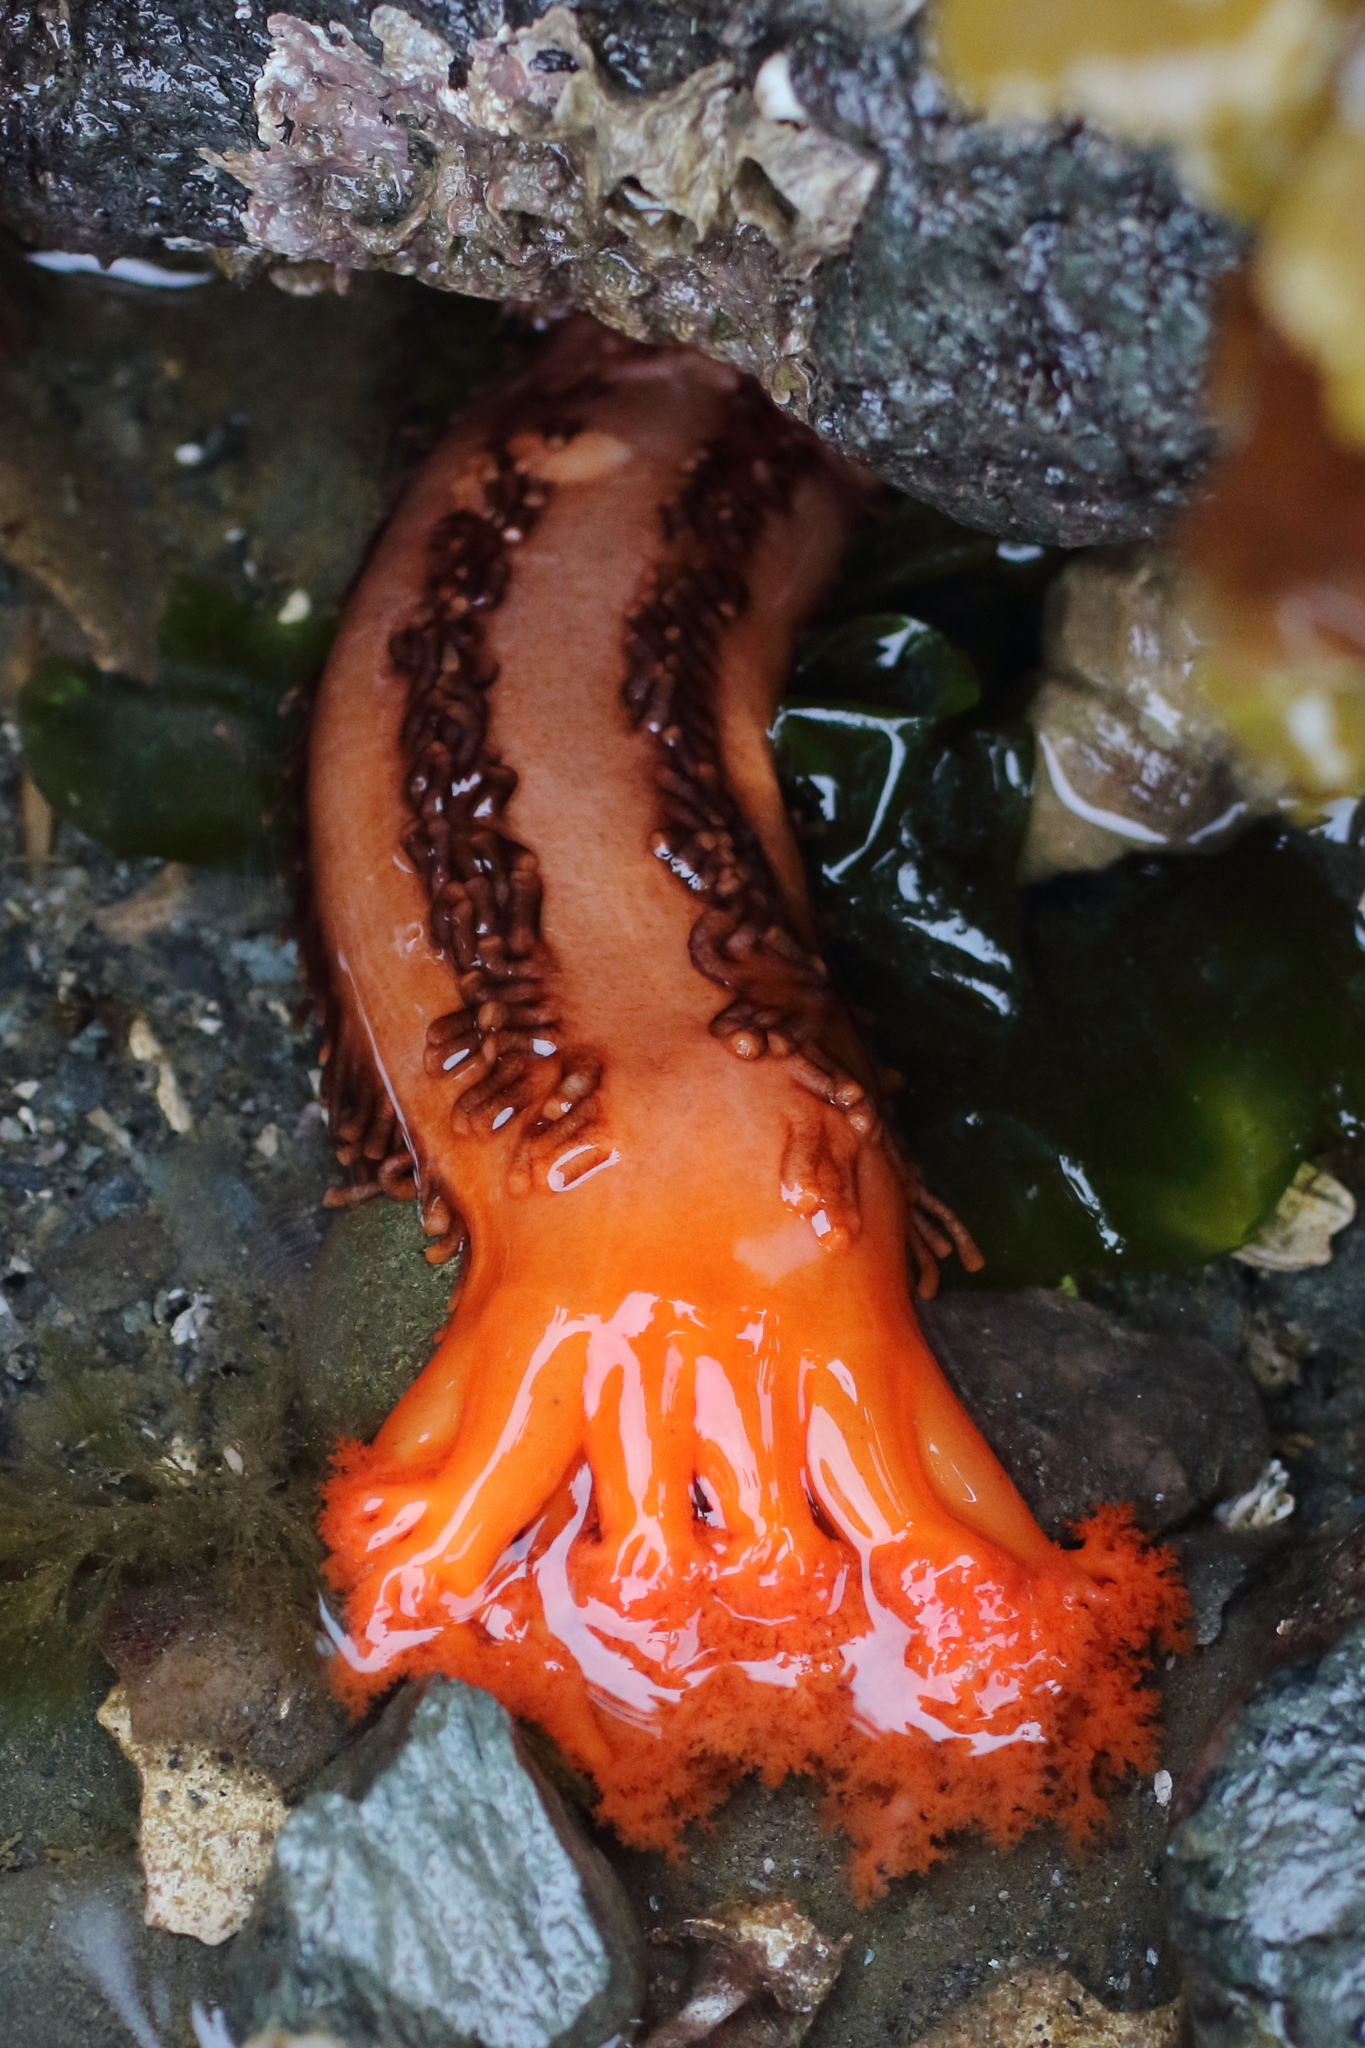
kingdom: Animalia
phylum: Echinodermata
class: Holothuroidea
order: Dendrochirotida
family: Cucumariidae
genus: Cucumaria
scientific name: Cucumaria miniata
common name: Orange sea cucumber
